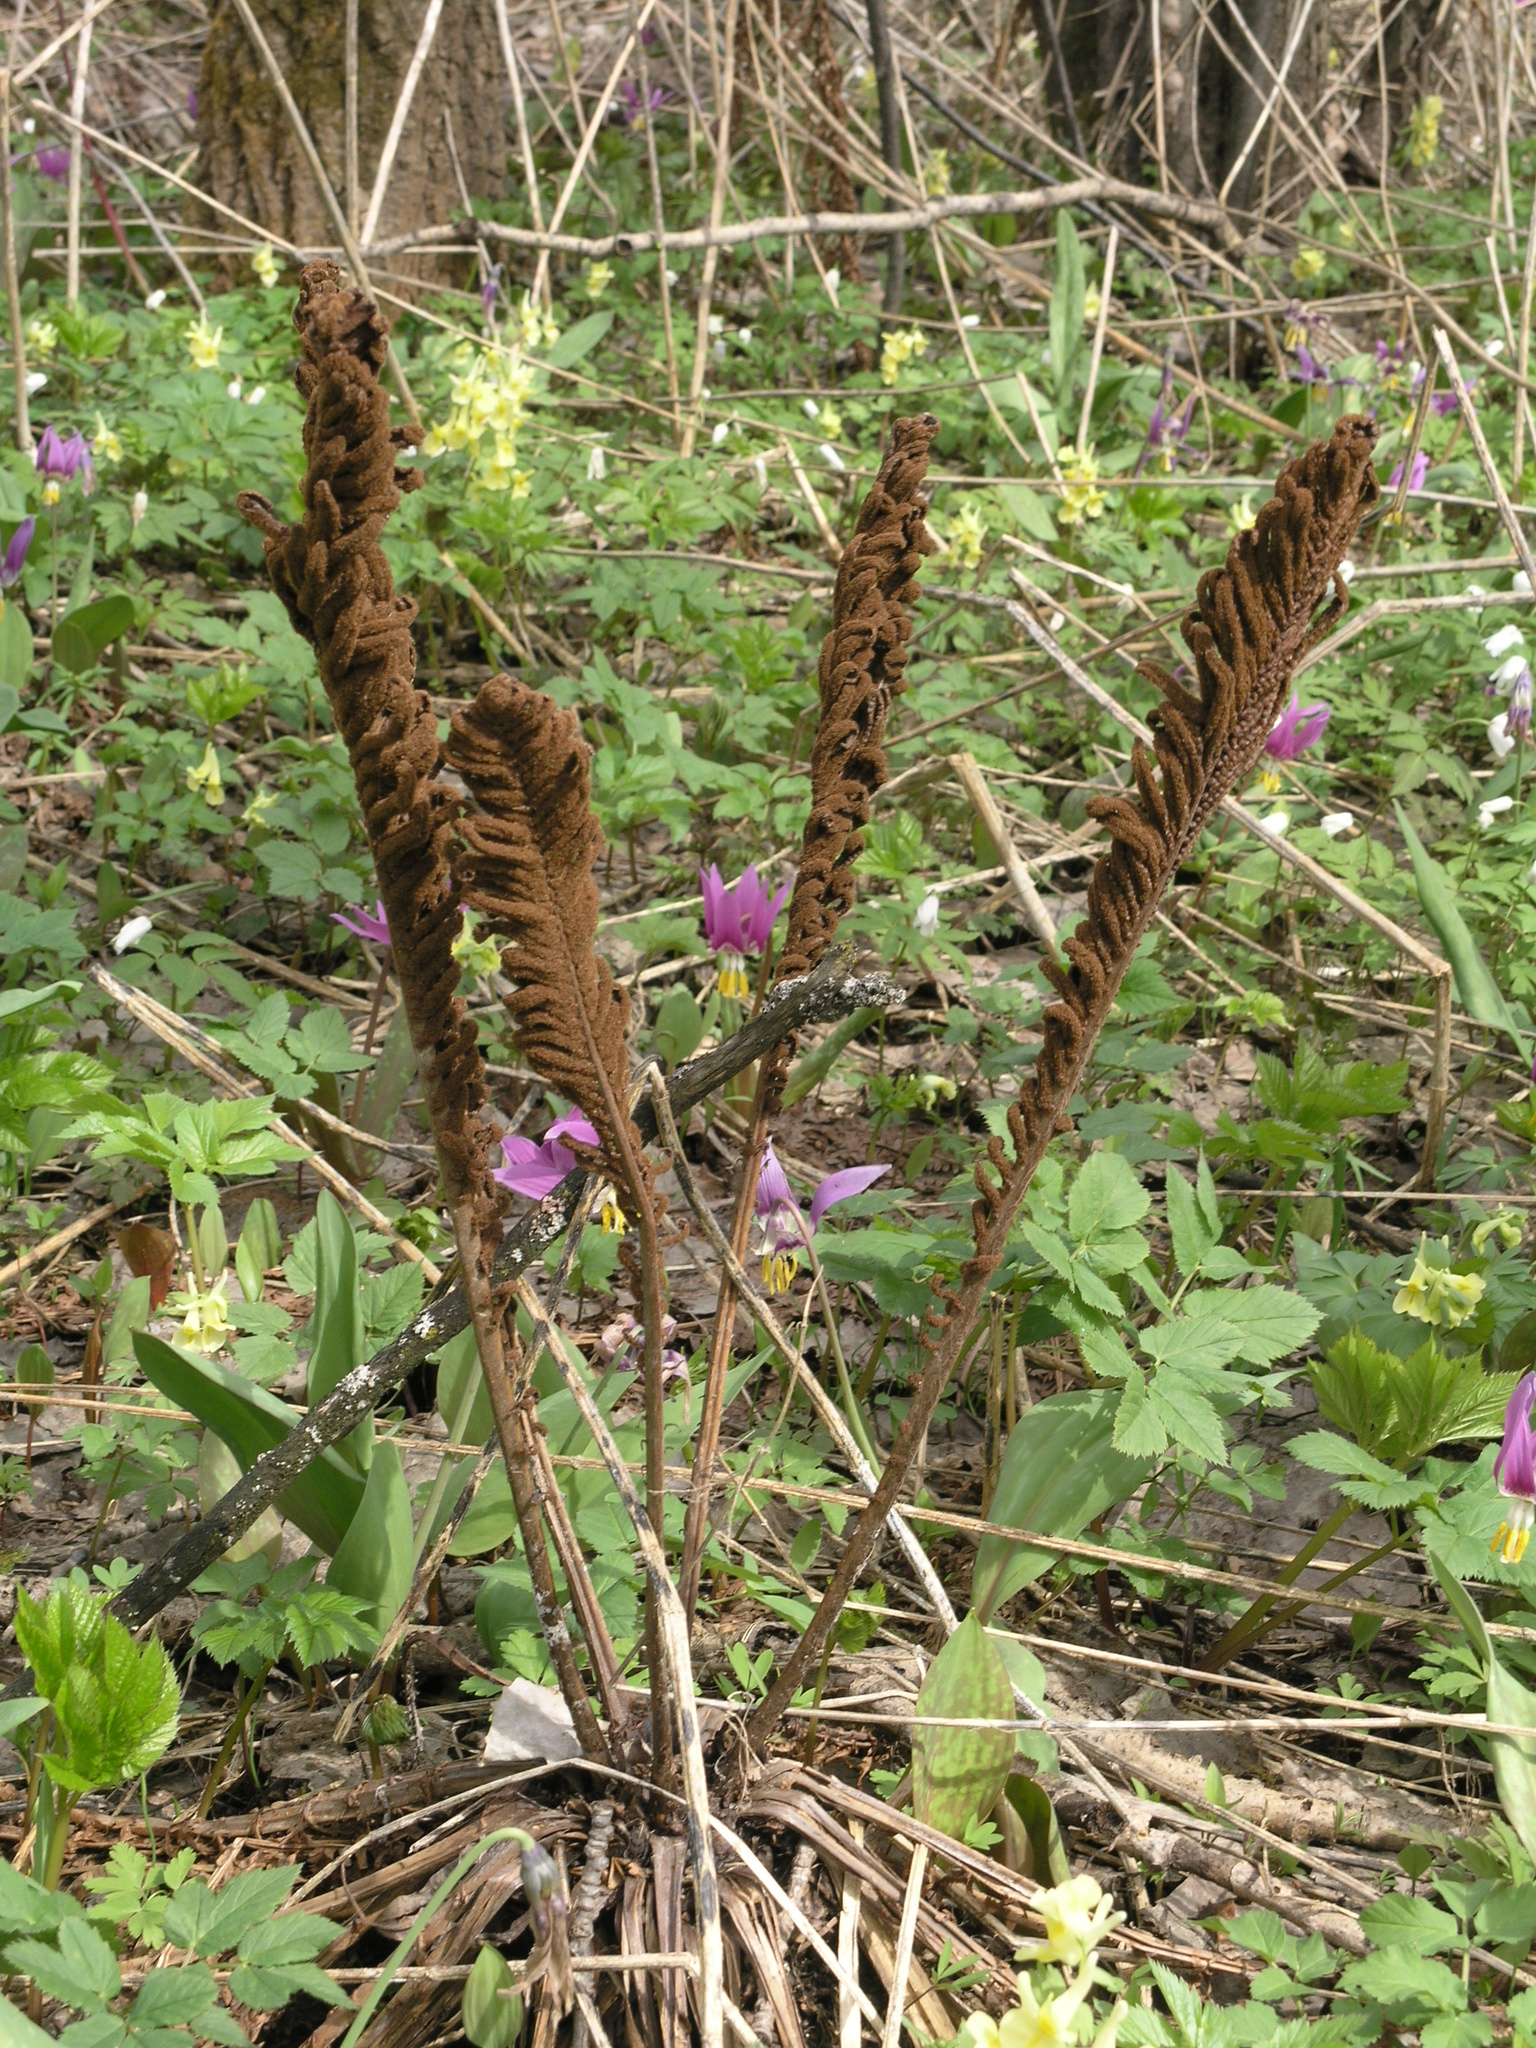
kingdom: Plantae
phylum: Tracheophyta
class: Polypodiopsida
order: Polypodiales
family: Onocleaceae
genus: Matteuccia
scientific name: Matteuccia struthiopteris
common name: Ostrich fern
